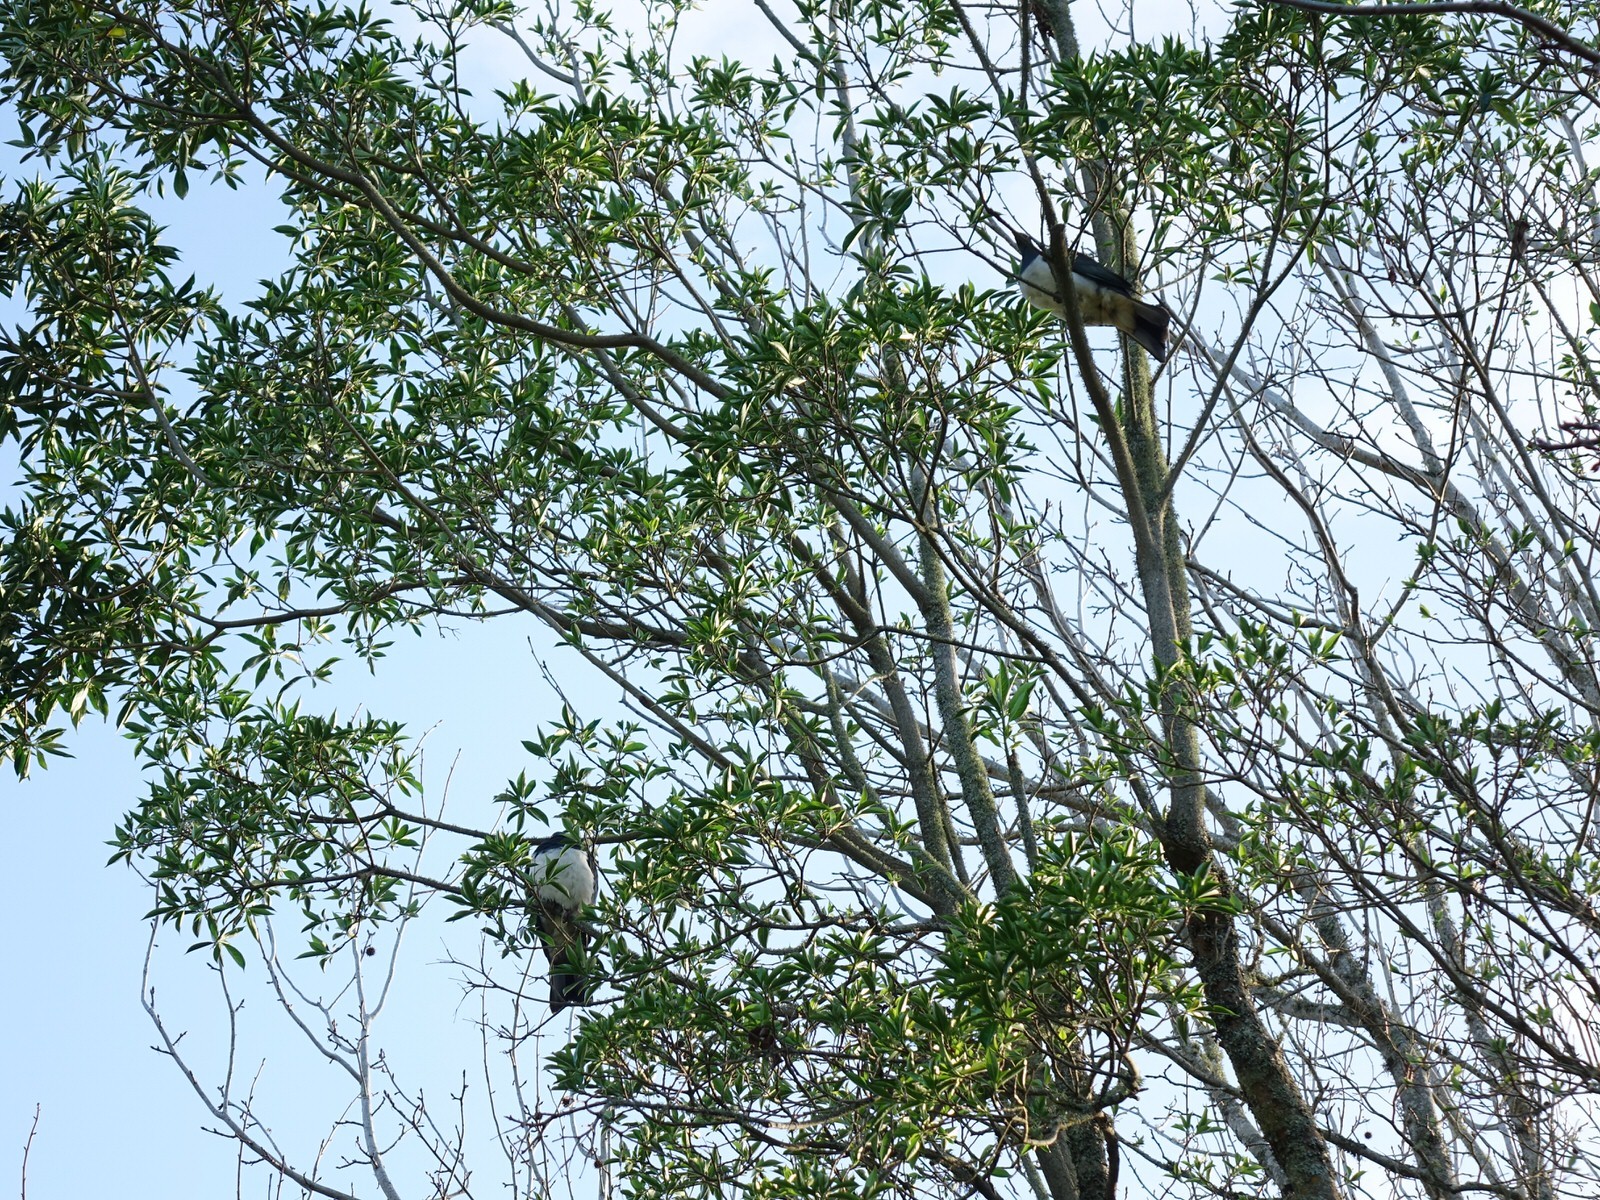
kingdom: Animalia
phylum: Chordata
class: Aves
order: Columbiformes
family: Columbidae
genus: Hemiphaga
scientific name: Hemiphaga novaeseelandiae
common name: New zealand pigeon
